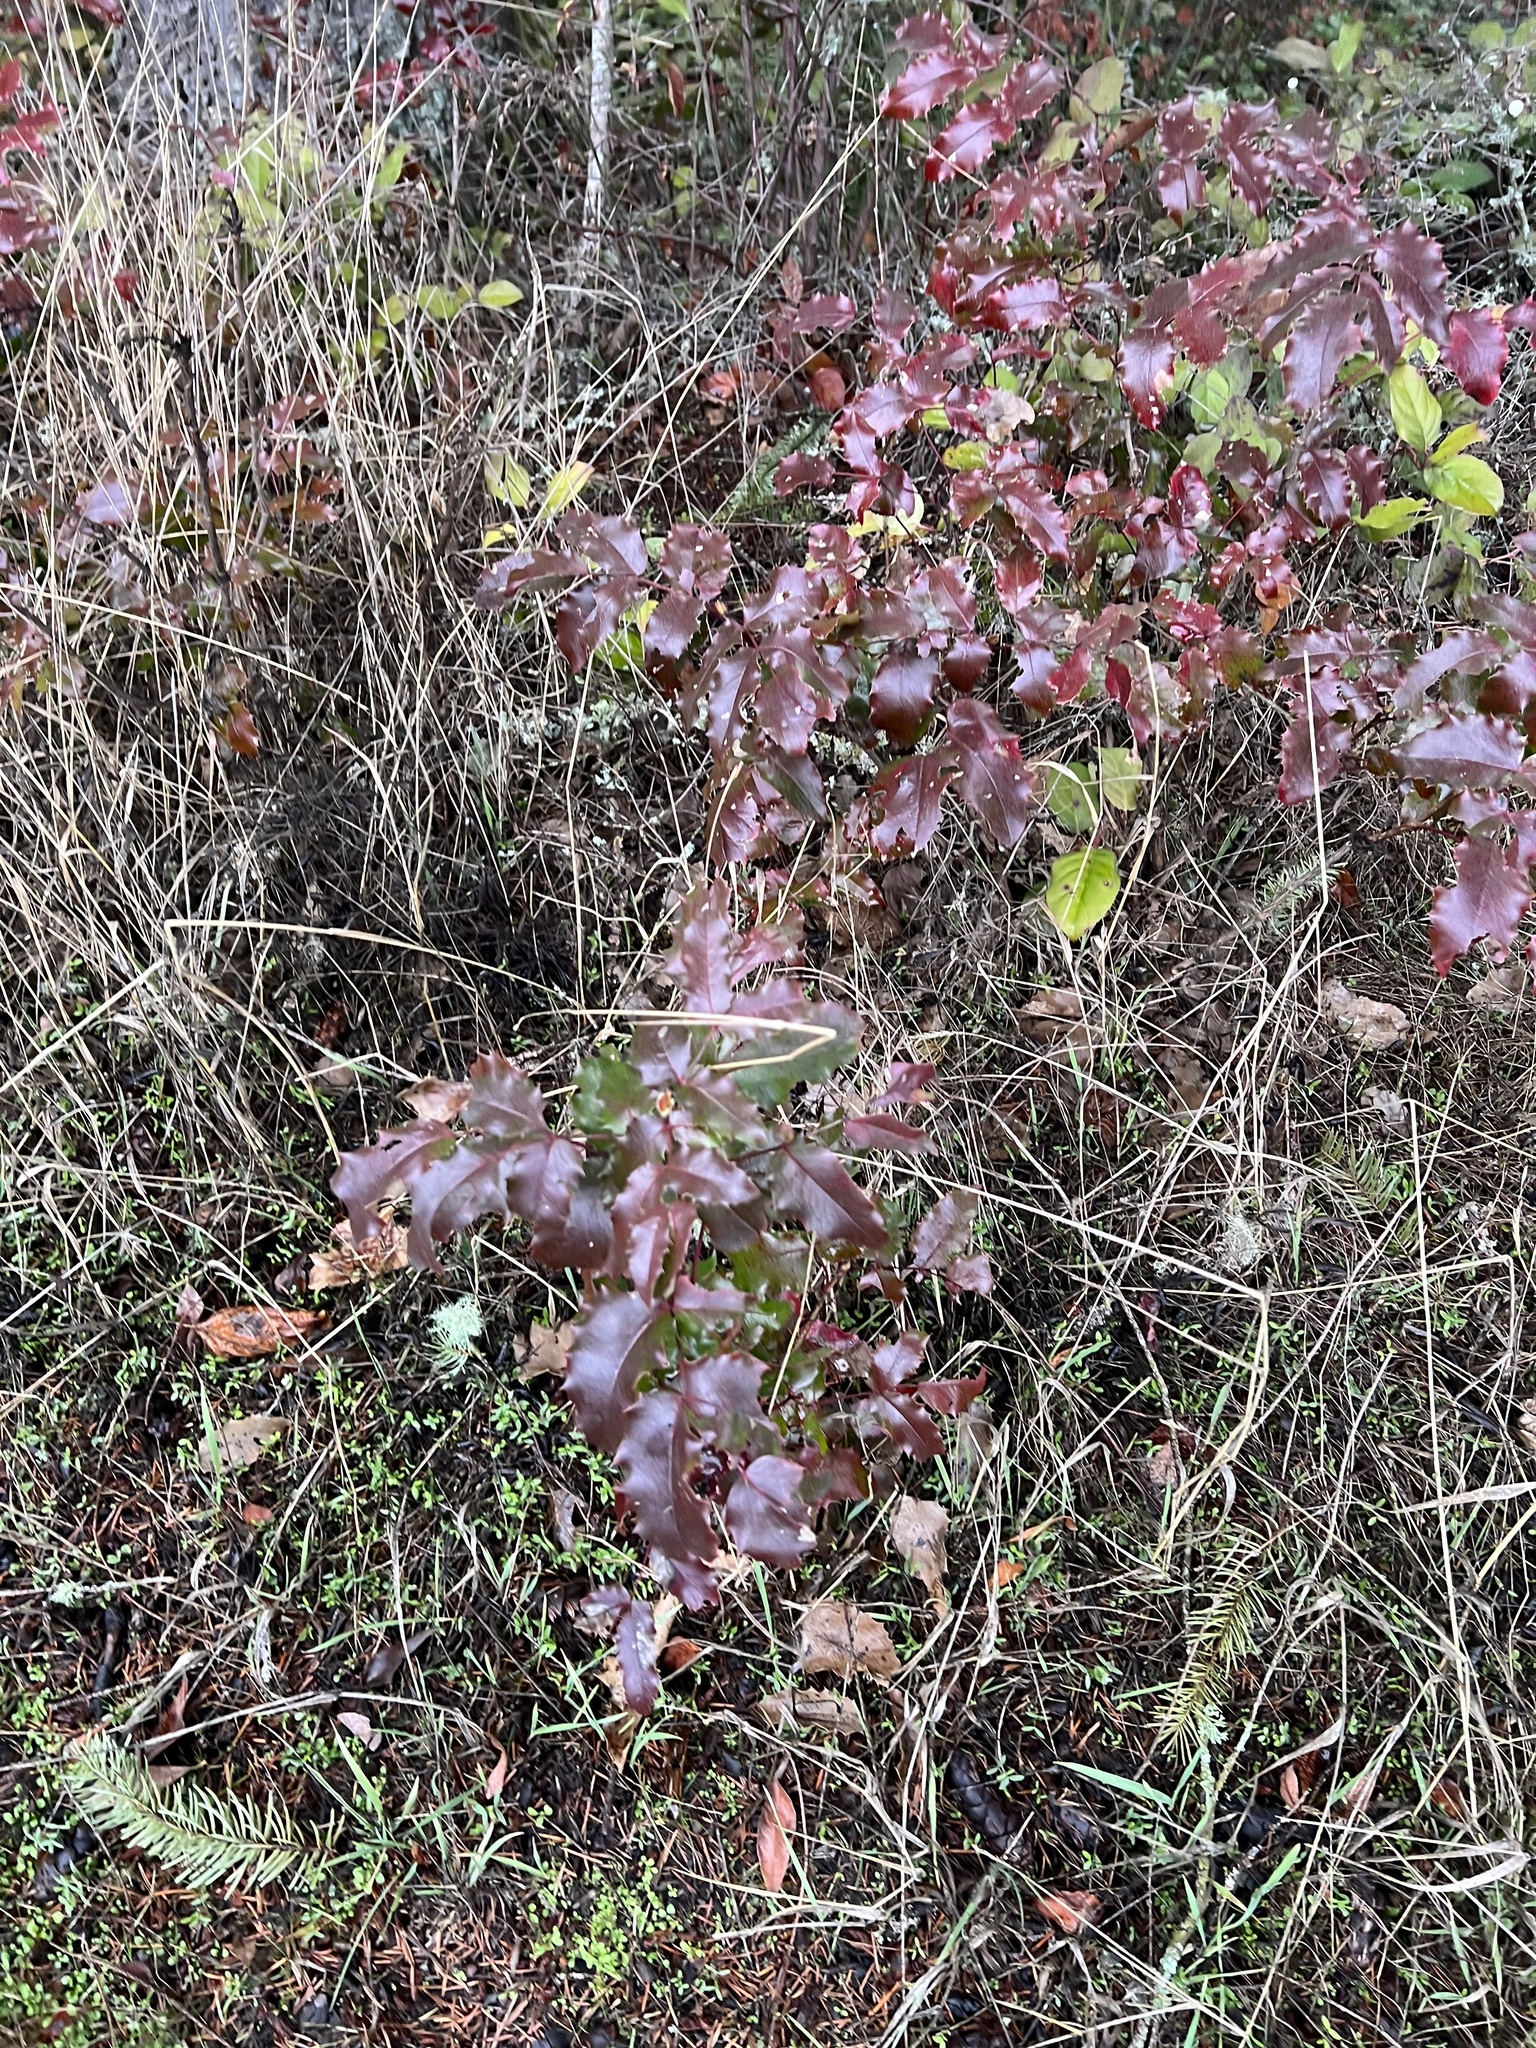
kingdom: Plantae
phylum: Tracheophyta
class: Magnoliopsida
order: Ranunculales
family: Berberidaceae
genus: Mahonia
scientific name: Mahonia aquifolium
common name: Oregon-grape
